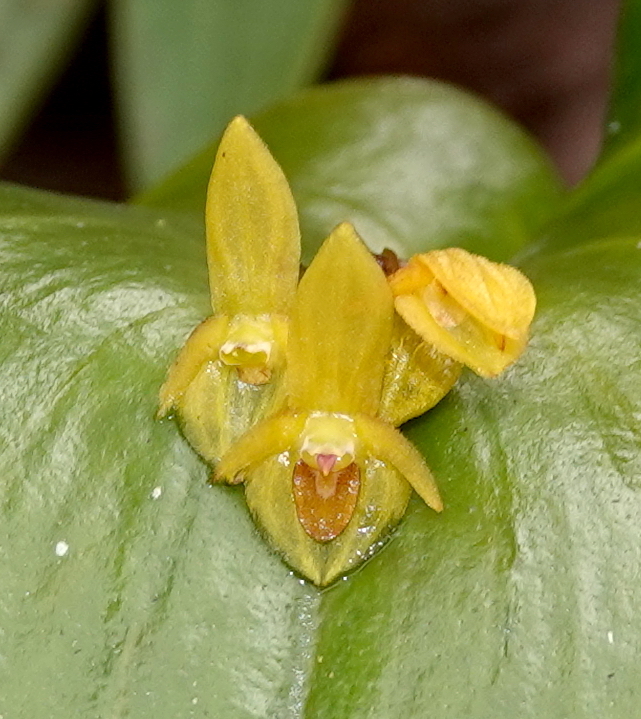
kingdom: Plantae
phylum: Tracheophyta
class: Liliopsida
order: Asparagales
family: Orchidaceae
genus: Pleurothallis
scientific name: Pleurothallis cordata
